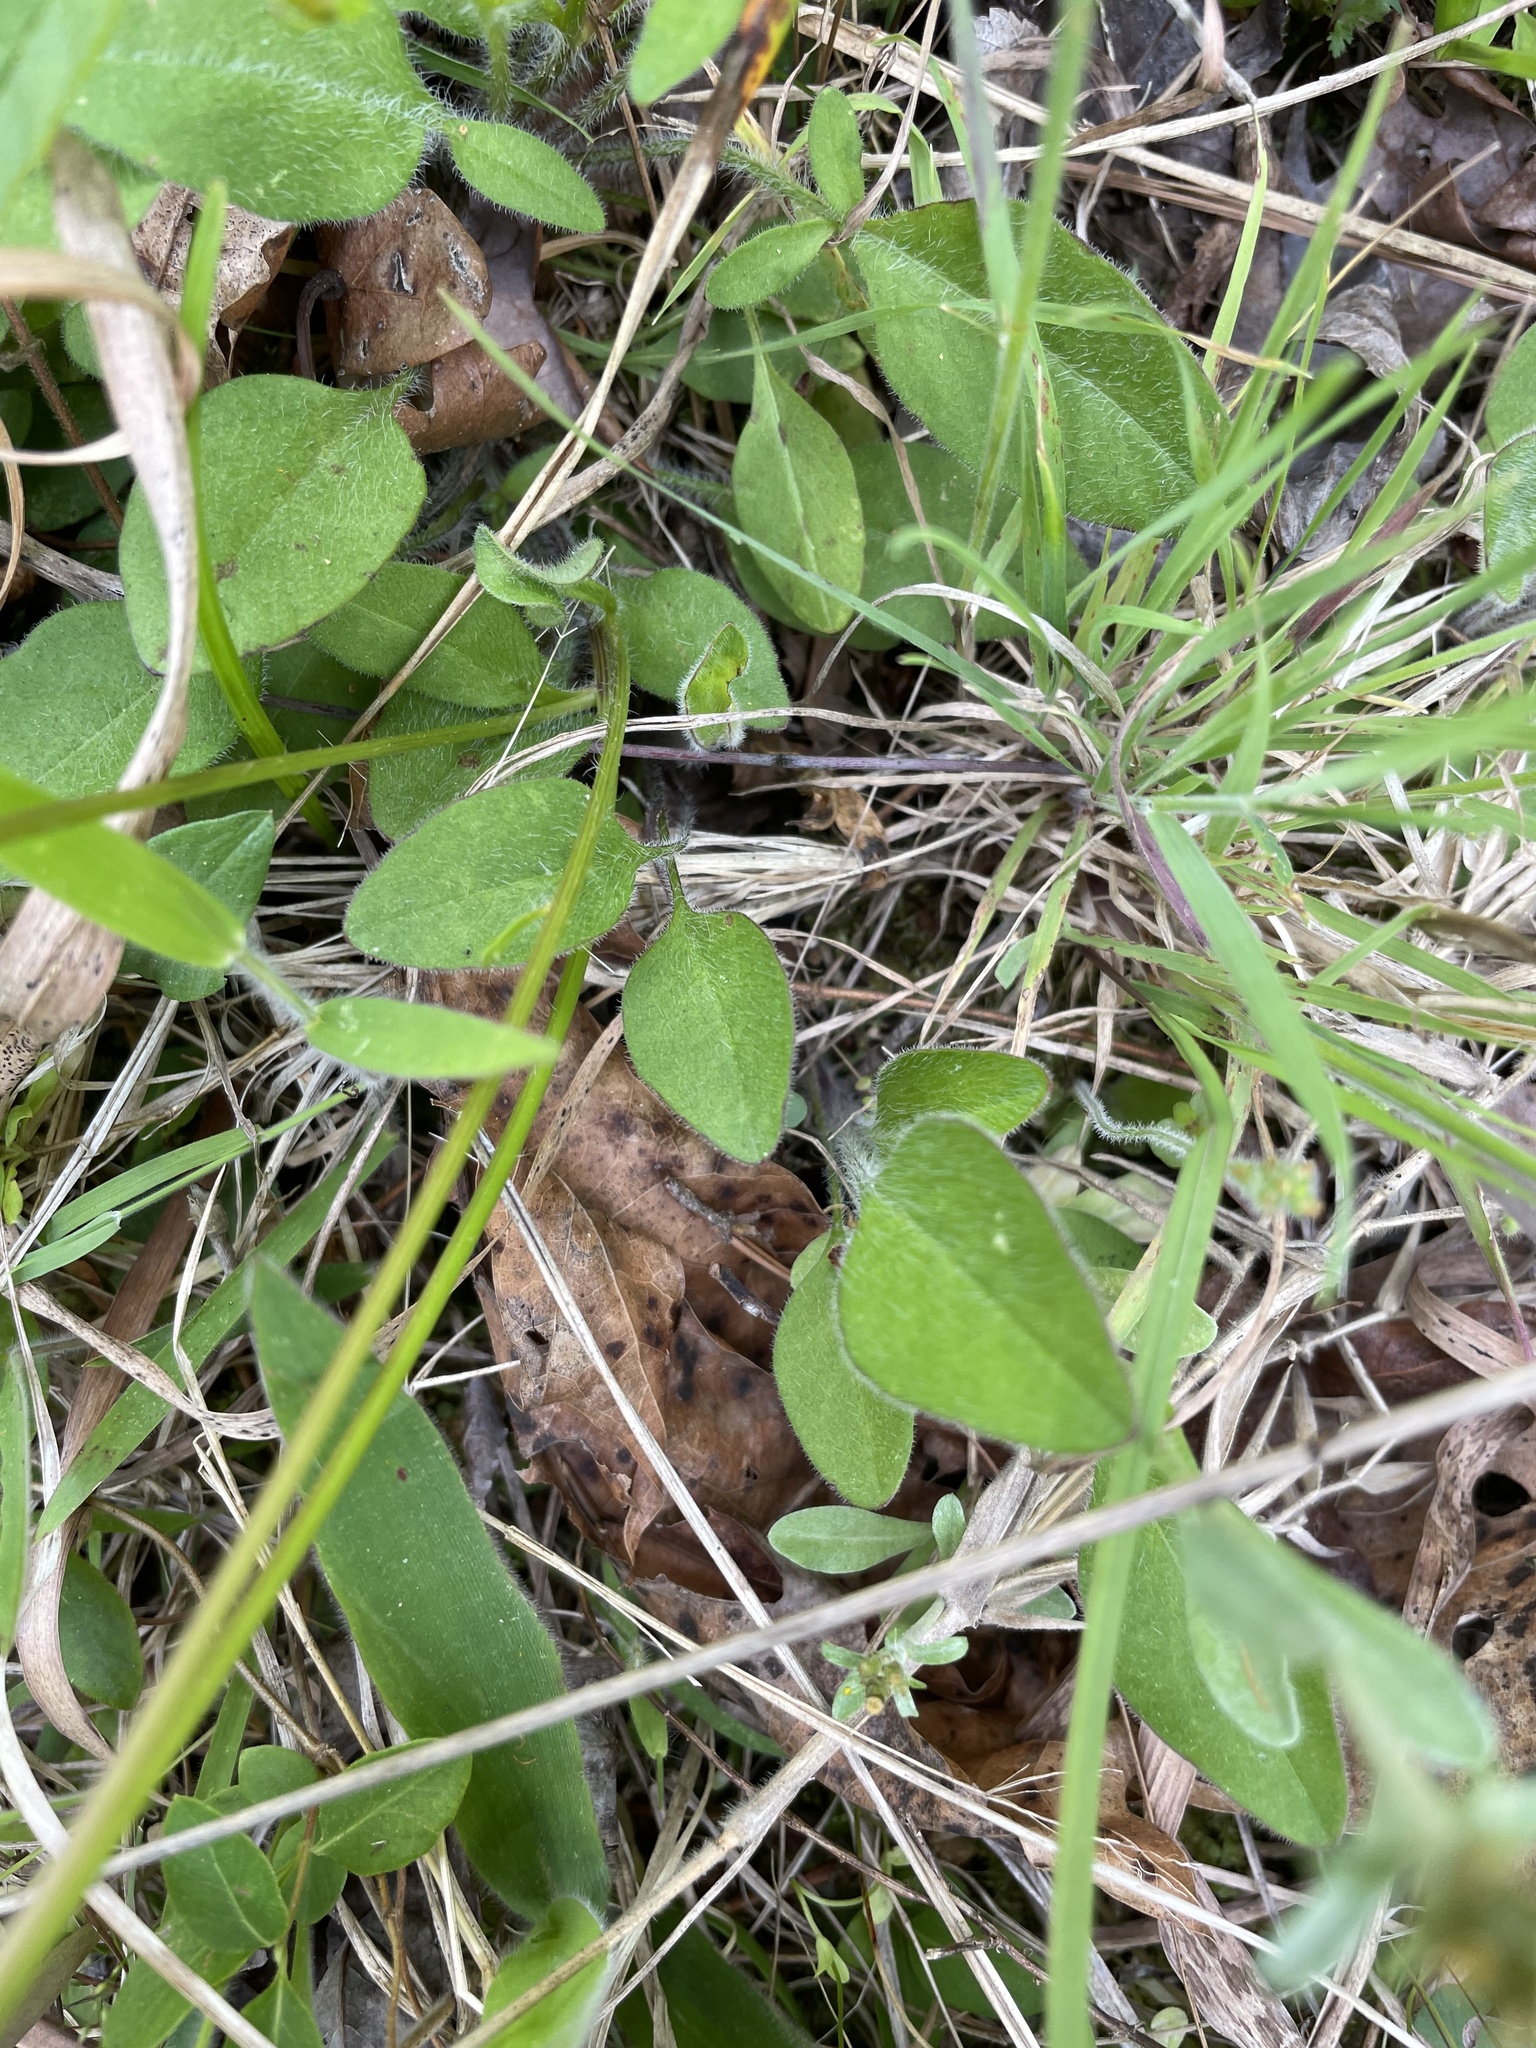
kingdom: Plantae
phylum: Tracheophyta
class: Magnoliopsida
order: Asterales
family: Asteraceae
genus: Coreopsis
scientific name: Coreopsis auriculata
